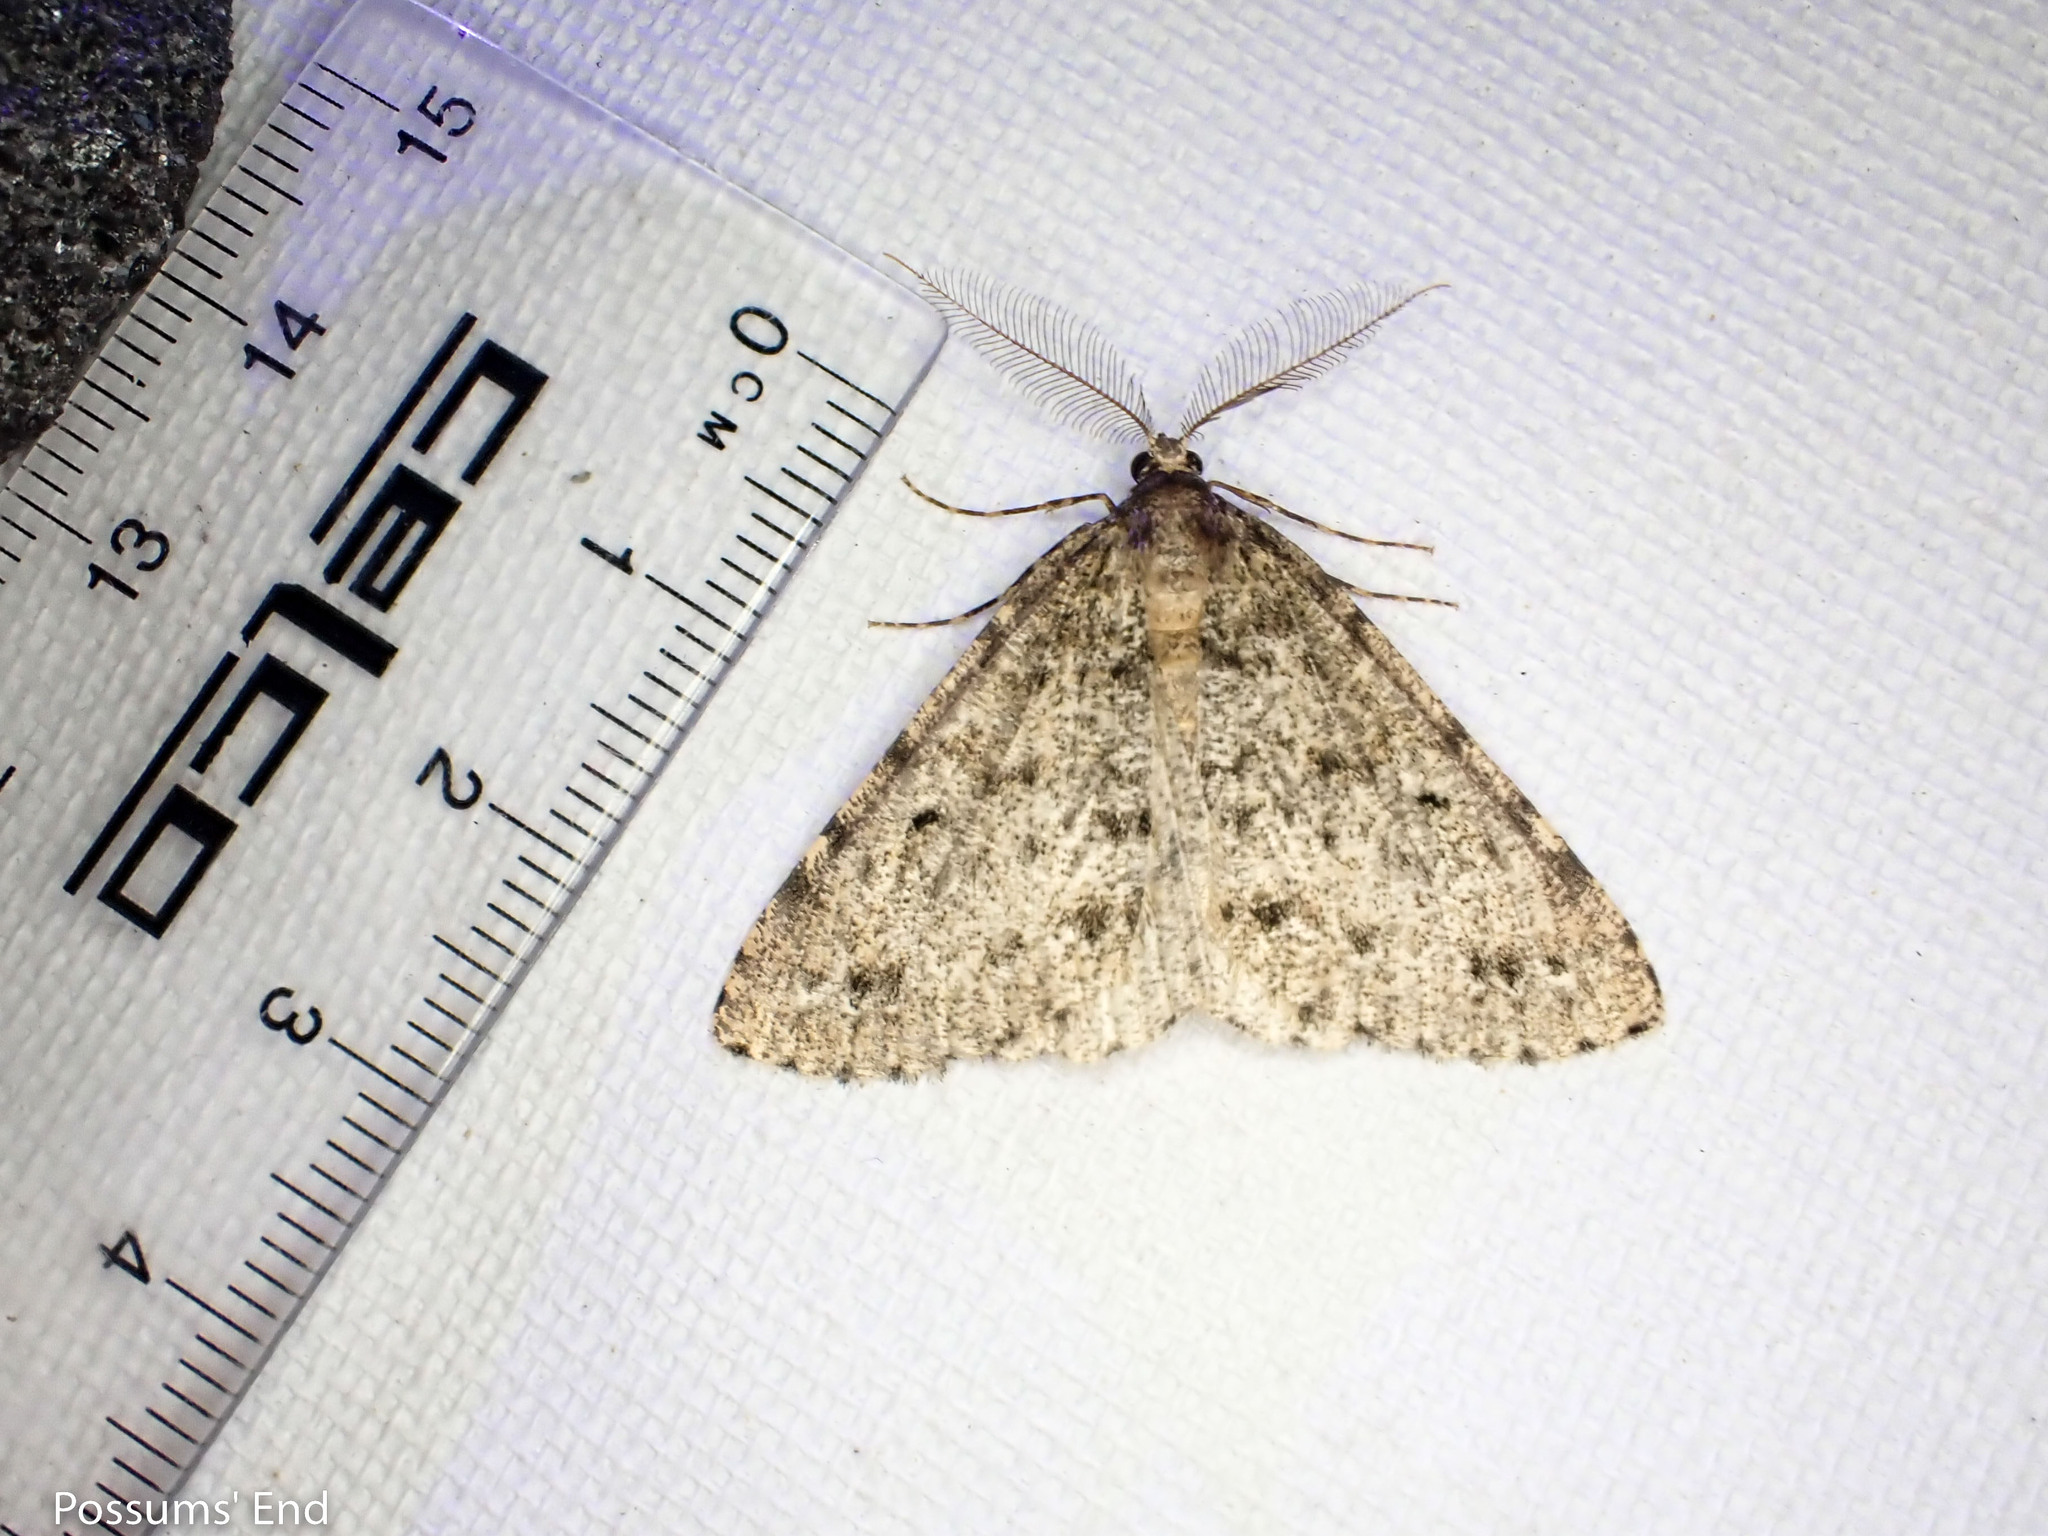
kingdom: Animalia
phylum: Arthropoda
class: Insecta
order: Lepidoptera
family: Geometridae
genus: Pseudocoremia
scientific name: Pseudocoremia terrena
